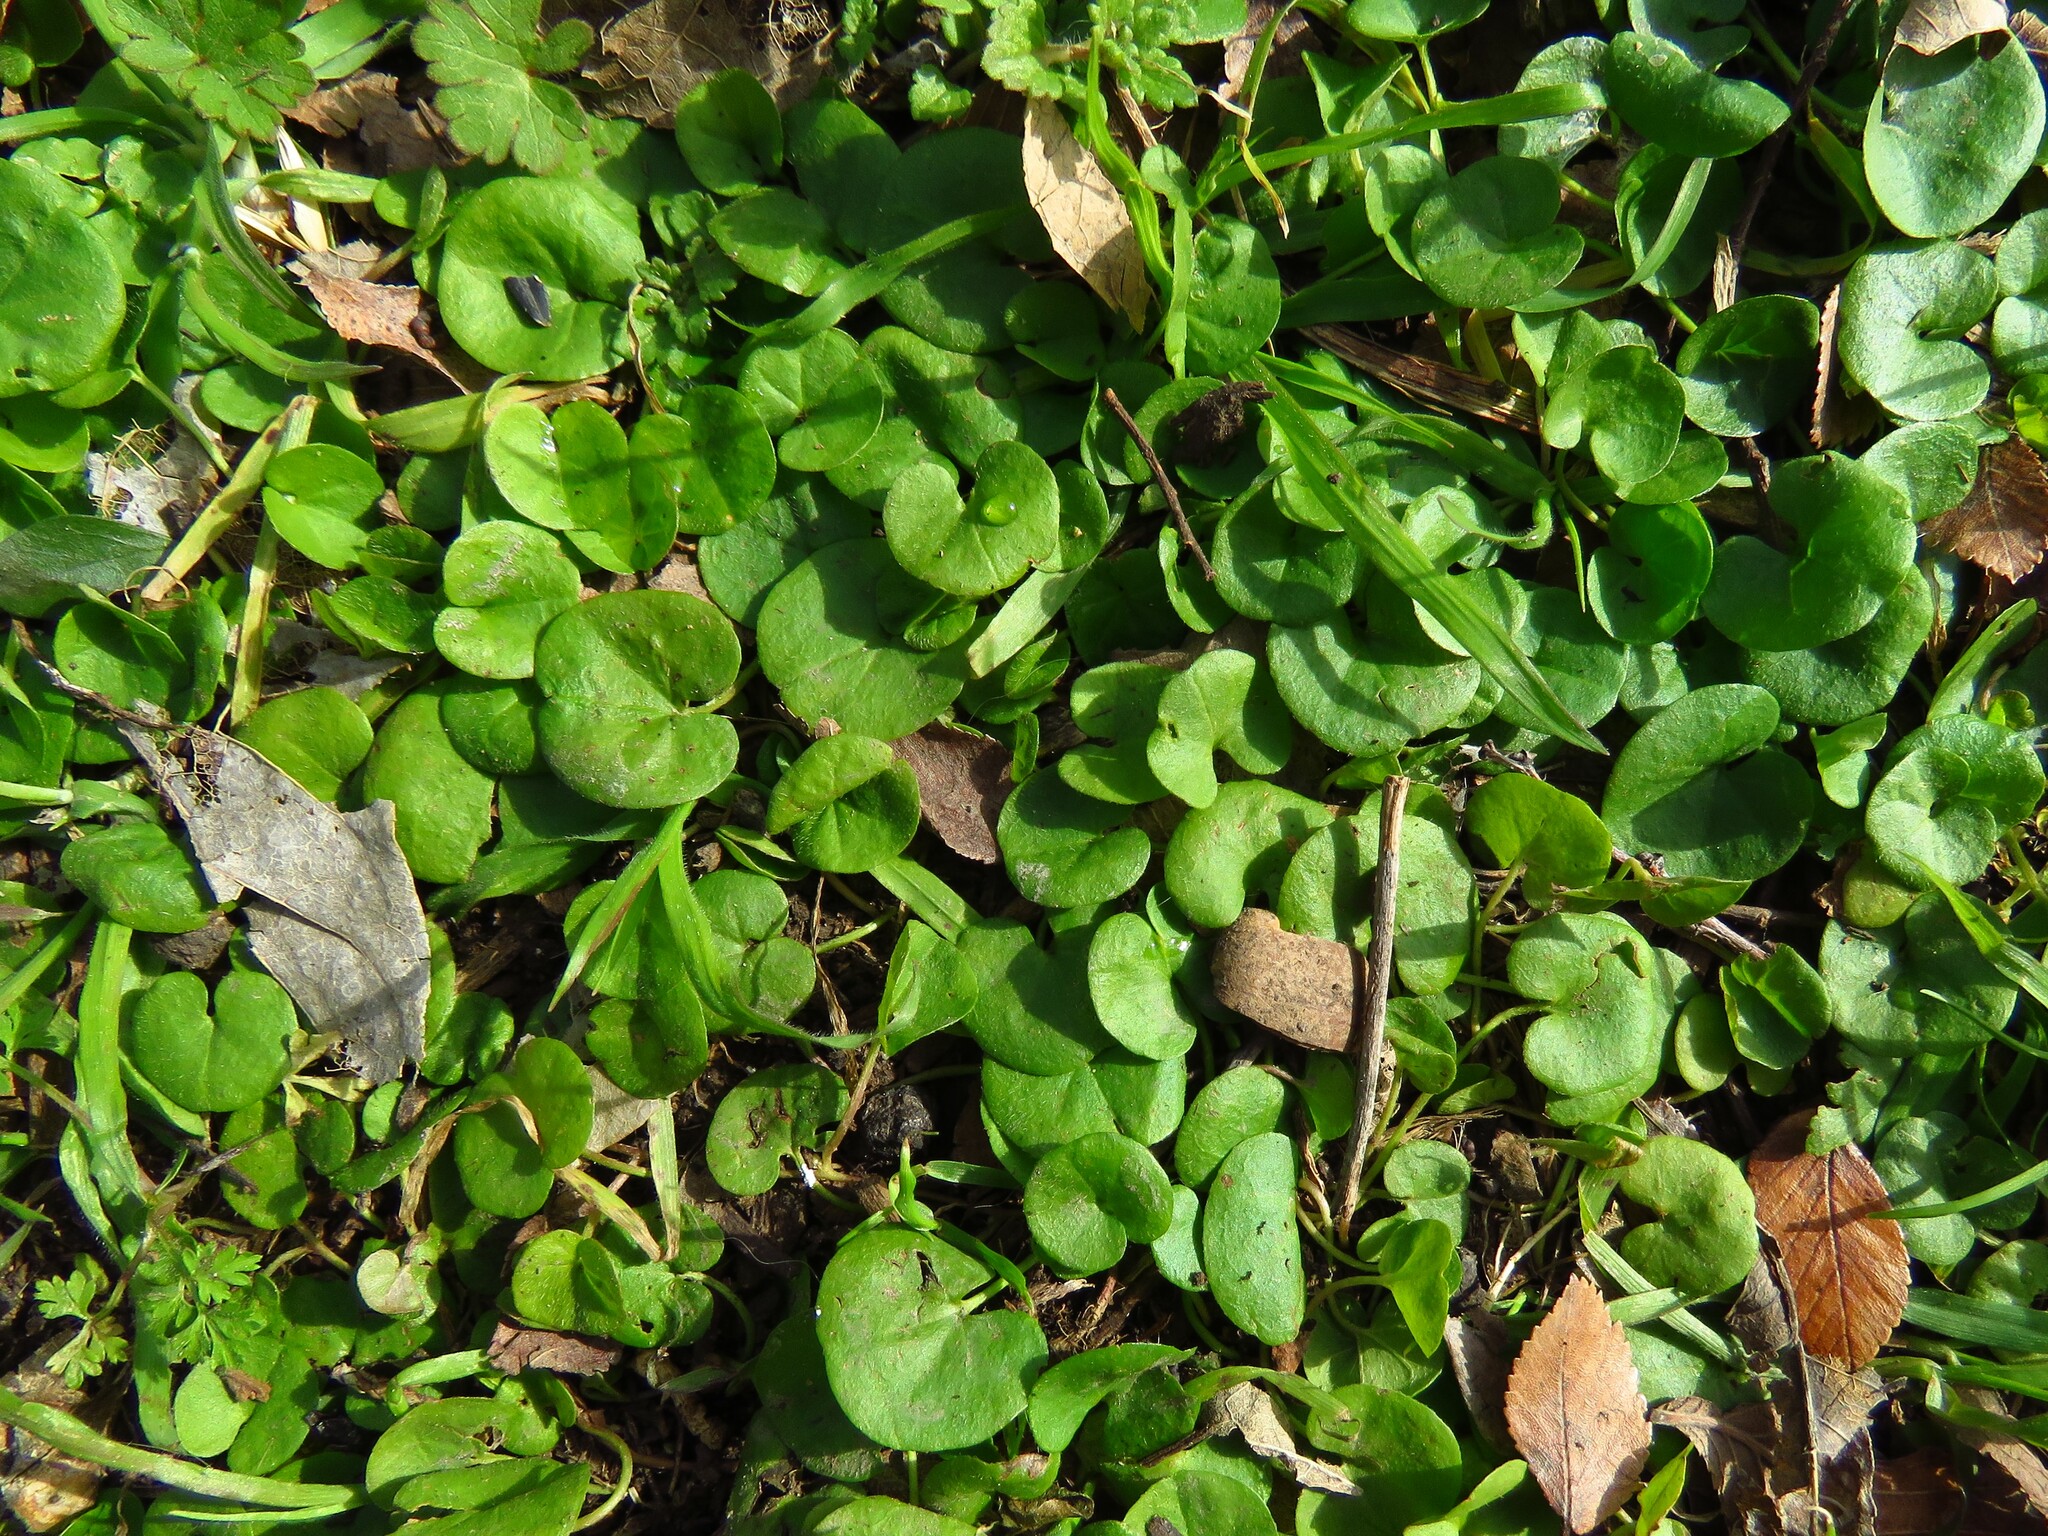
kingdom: Plantae
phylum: Tracheophyta
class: Magnoliopsida
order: Solanales
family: Convolvulaceae
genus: Dichondra
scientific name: Dichondra carolinensis
